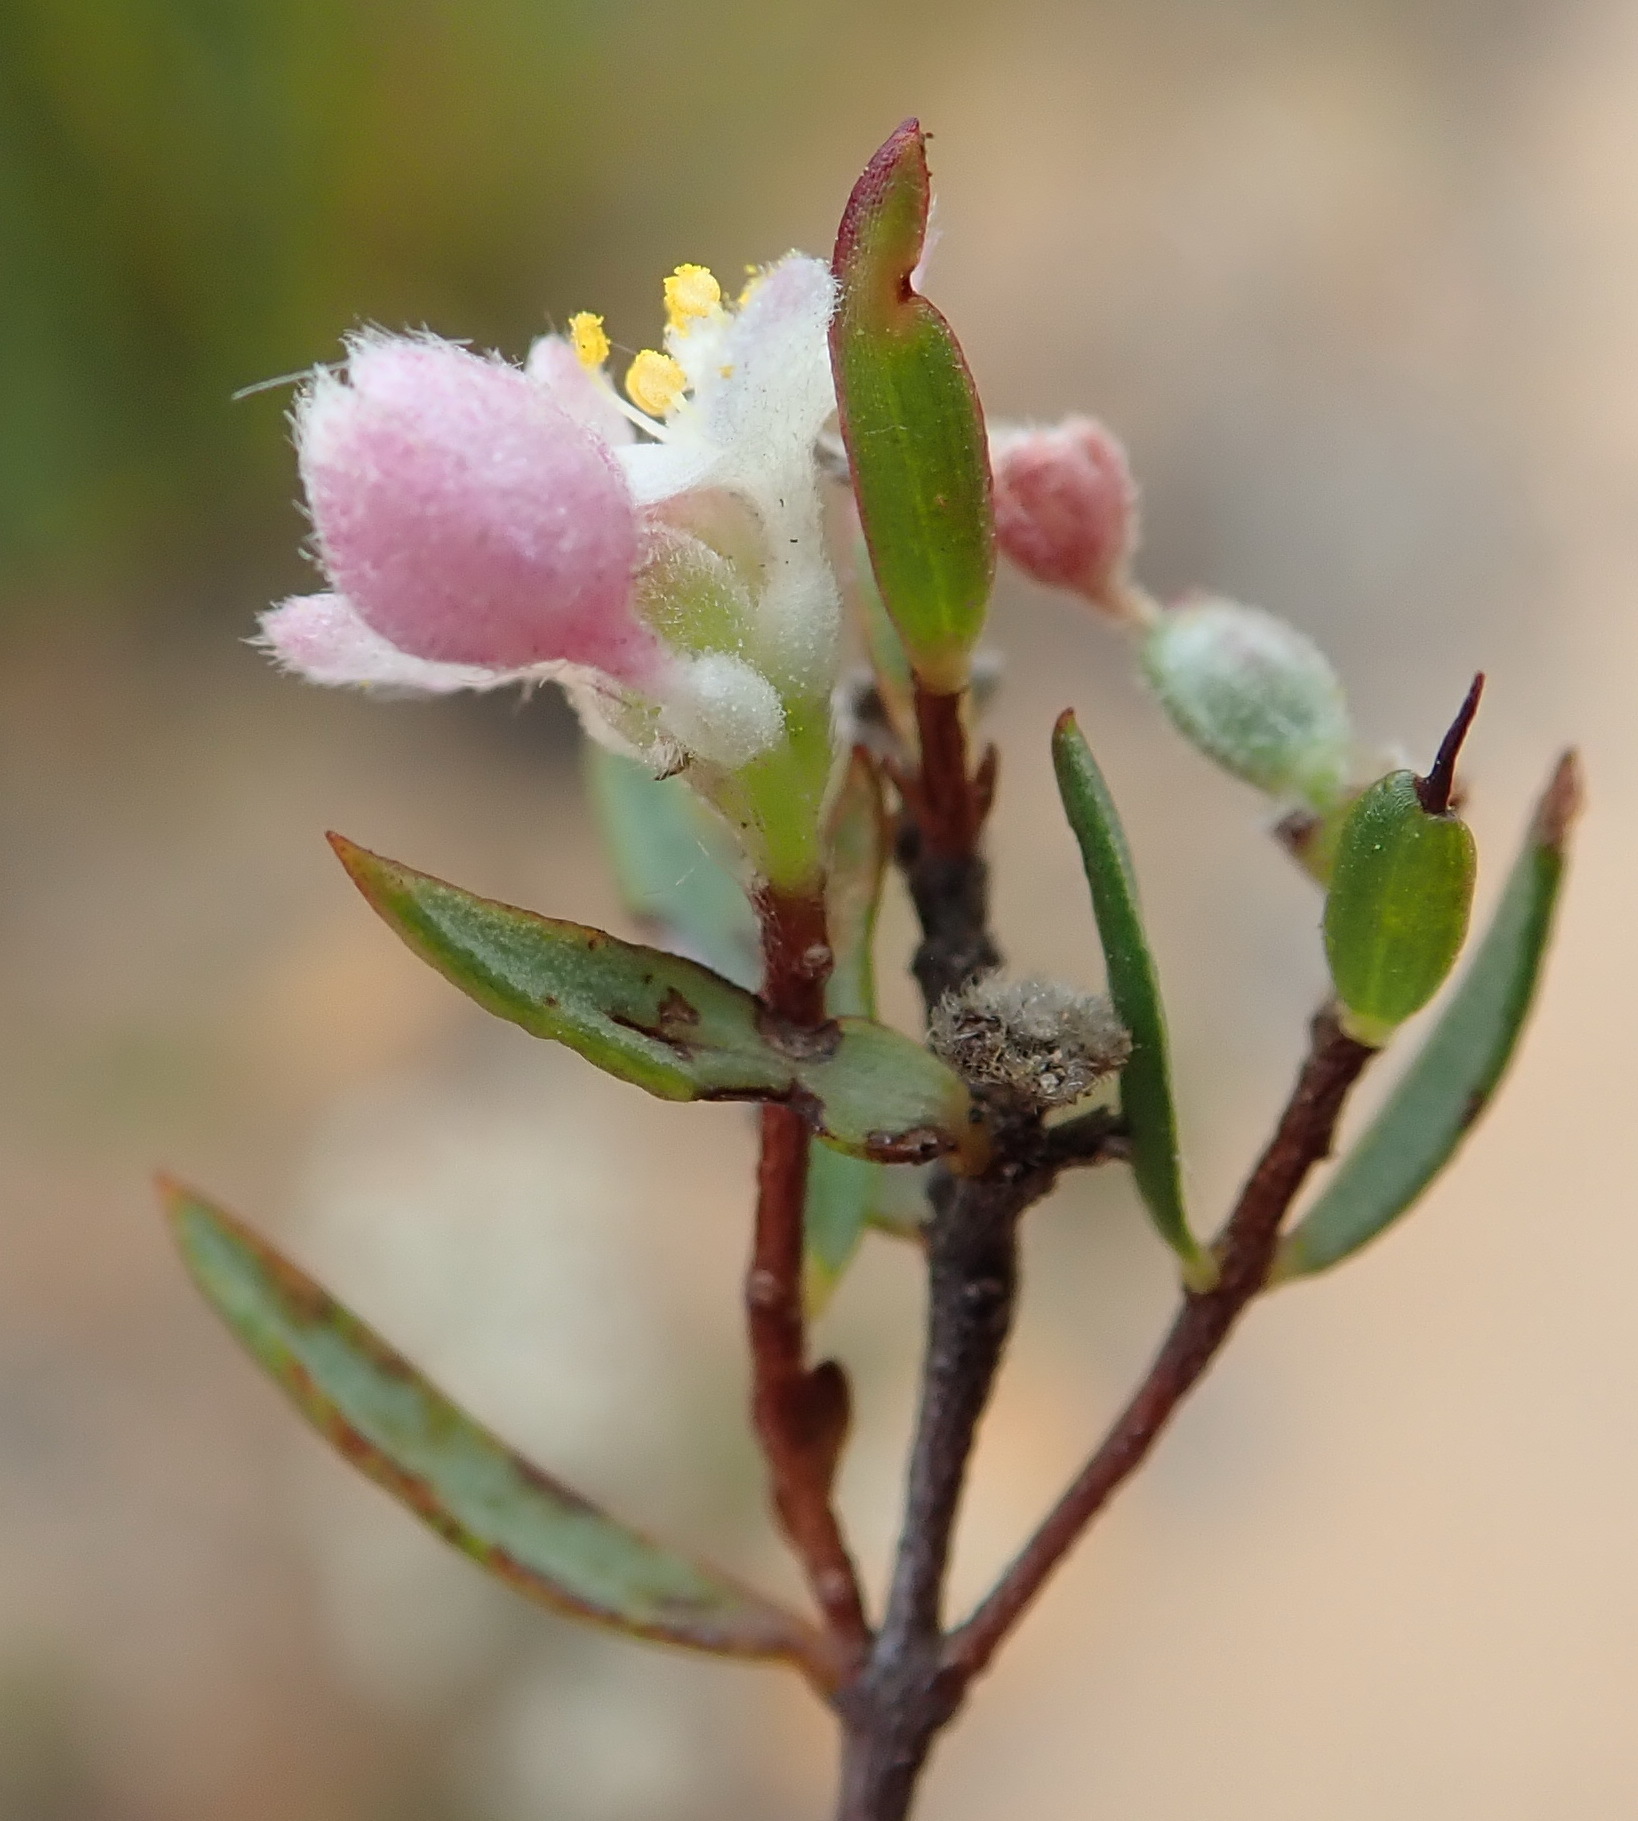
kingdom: Plantae
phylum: Tracheophyta
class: Magnoliopsida
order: Malvales
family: Thymelaeaceae
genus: Lachnaea
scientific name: Lachnaea burchellii
